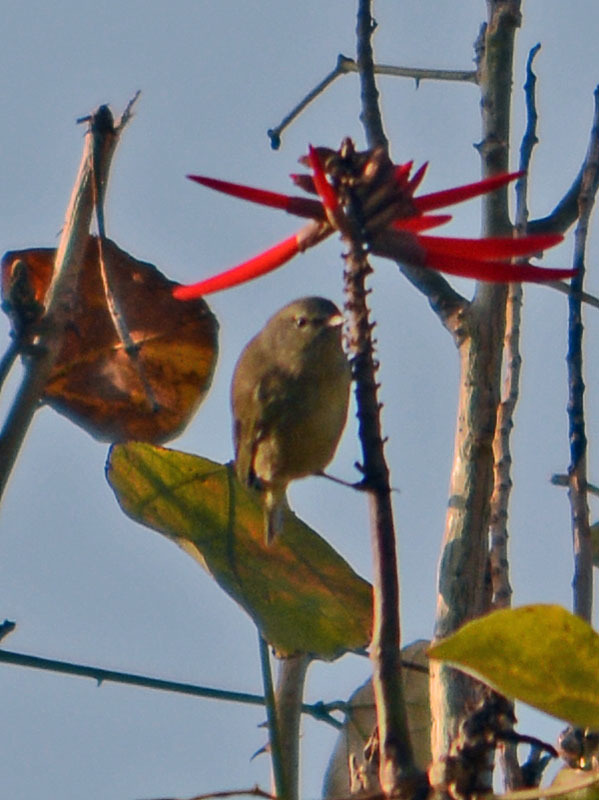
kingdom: Animalia
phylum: Chordata
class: Aves
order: Passeriformes
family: Parulidae
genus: Leiothlypis
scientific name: Leiothlypis celata
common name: Orange-crowned warbler
